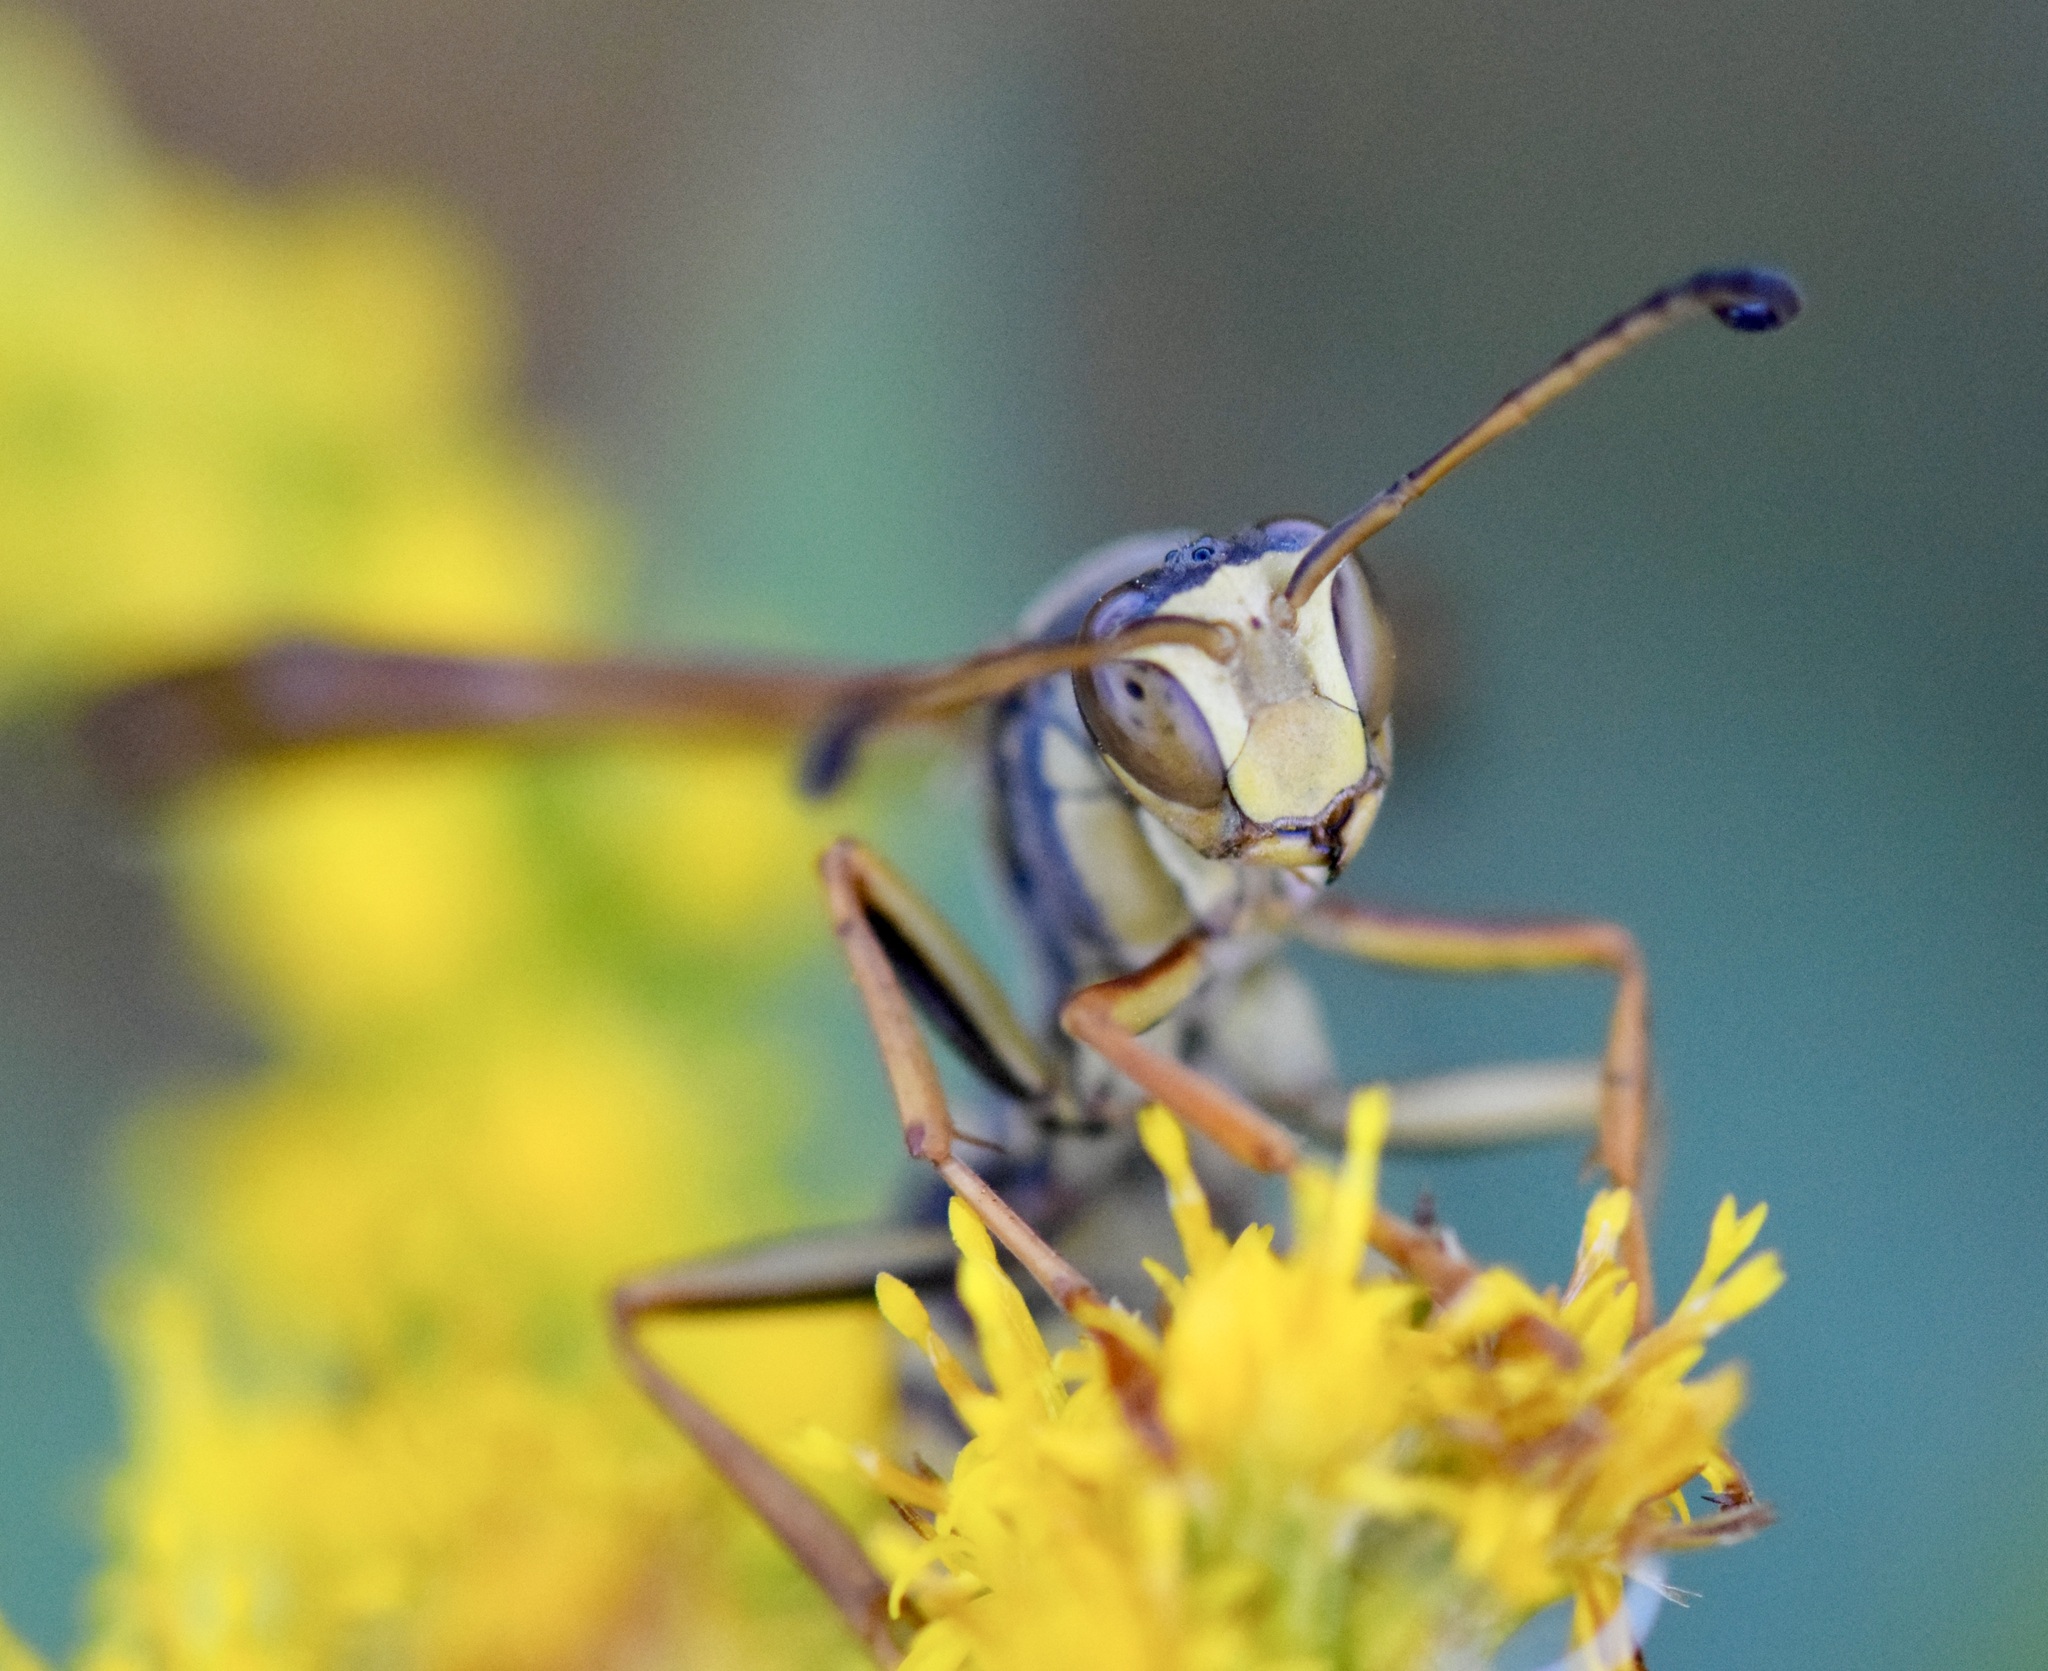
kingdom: Animalia
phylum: Arthropoda
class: Insecta
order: Hymenoptera
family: Eumenidae
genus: Polistes
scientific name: Polistes fuscatus
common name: Dark paper wasp
